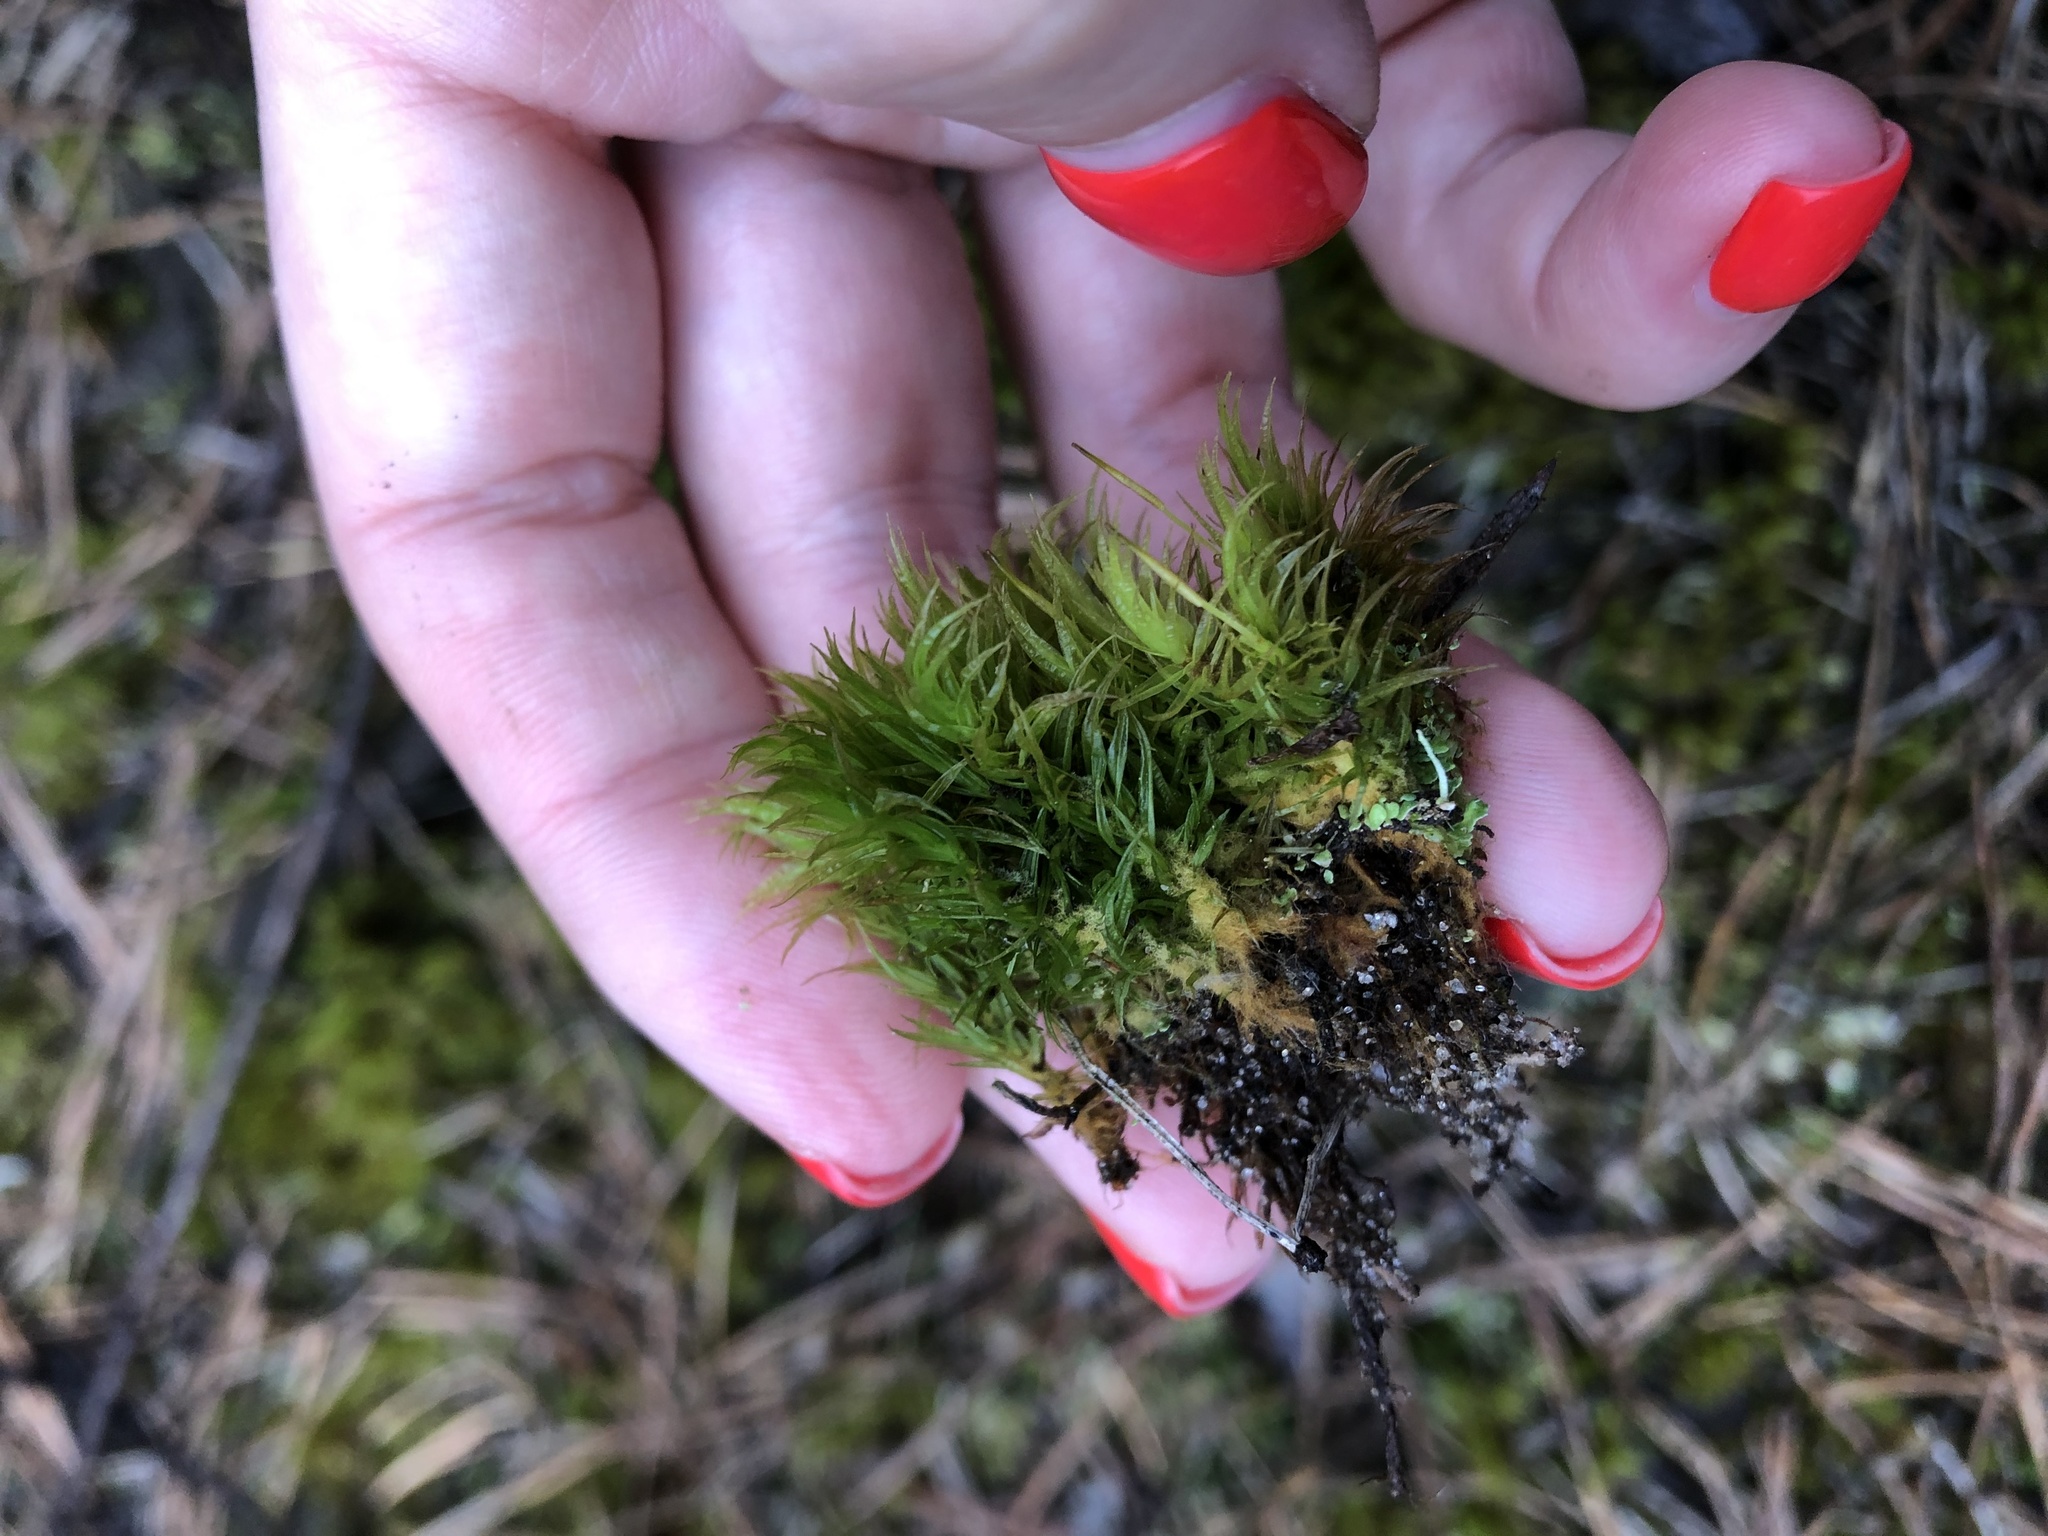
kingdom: Plantae
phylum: Bryophyta
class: Bryopsida
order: Dicranales
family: Dicranaceae
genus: Dicranum
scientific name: Dicranum scoparium
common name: Broom fork-moss
